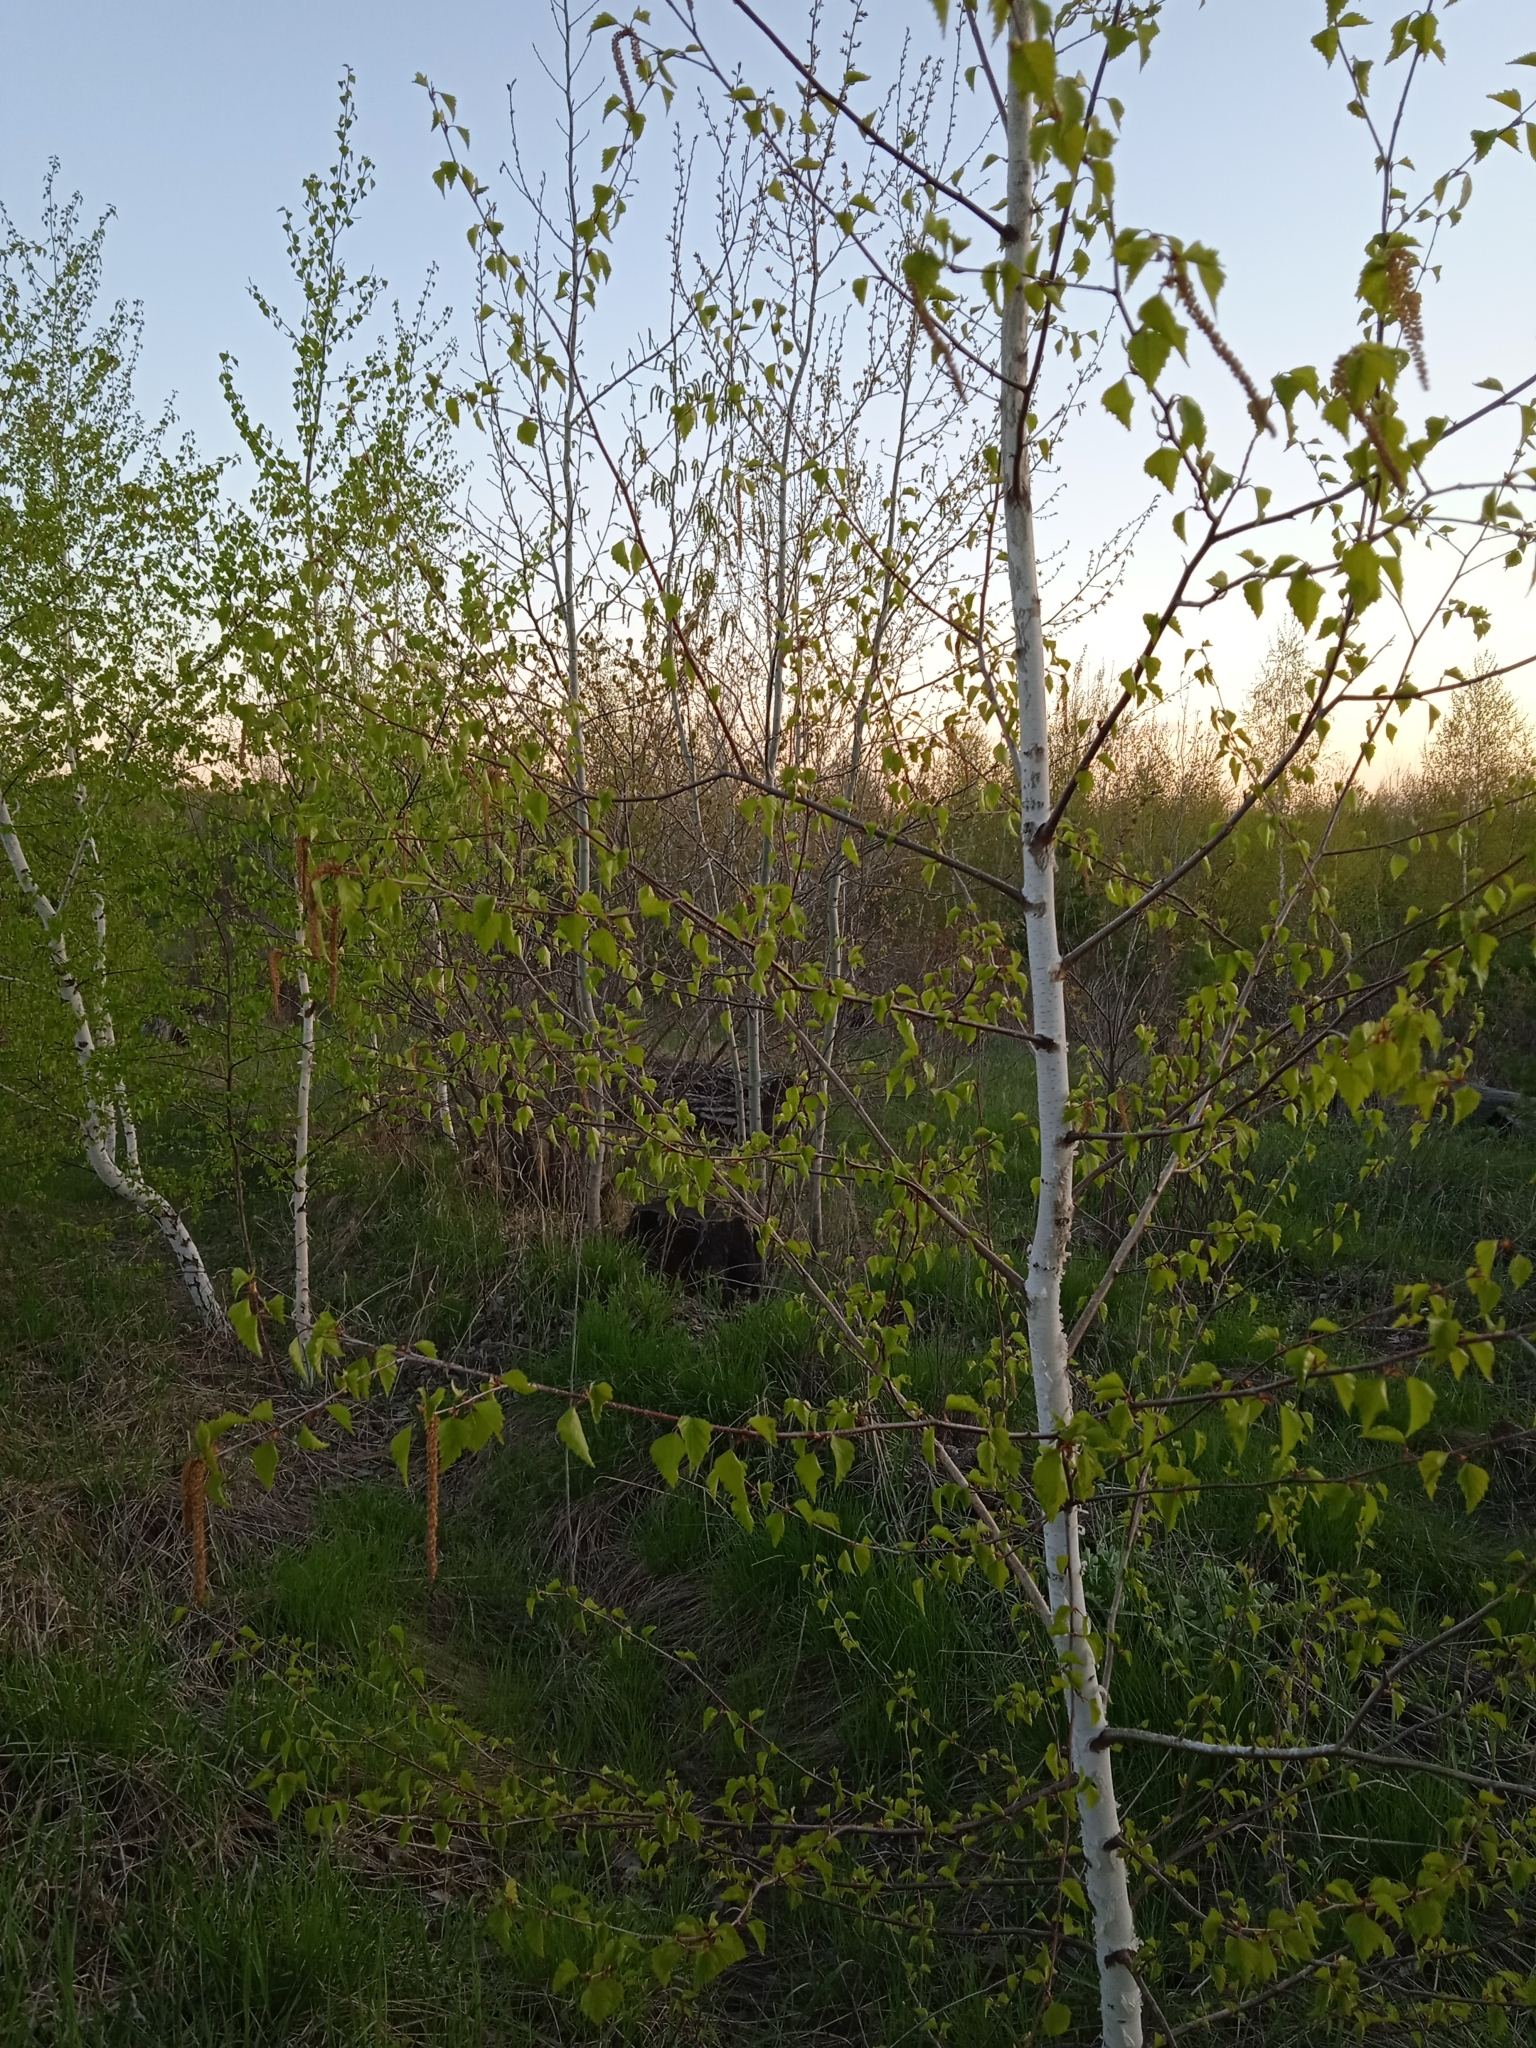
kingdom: Plantae
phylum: Tracheophyta
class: Magnoliopsida
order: Fagales
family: Betulaceae
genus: Betula
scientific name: Betula pendula
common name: Silver birch
